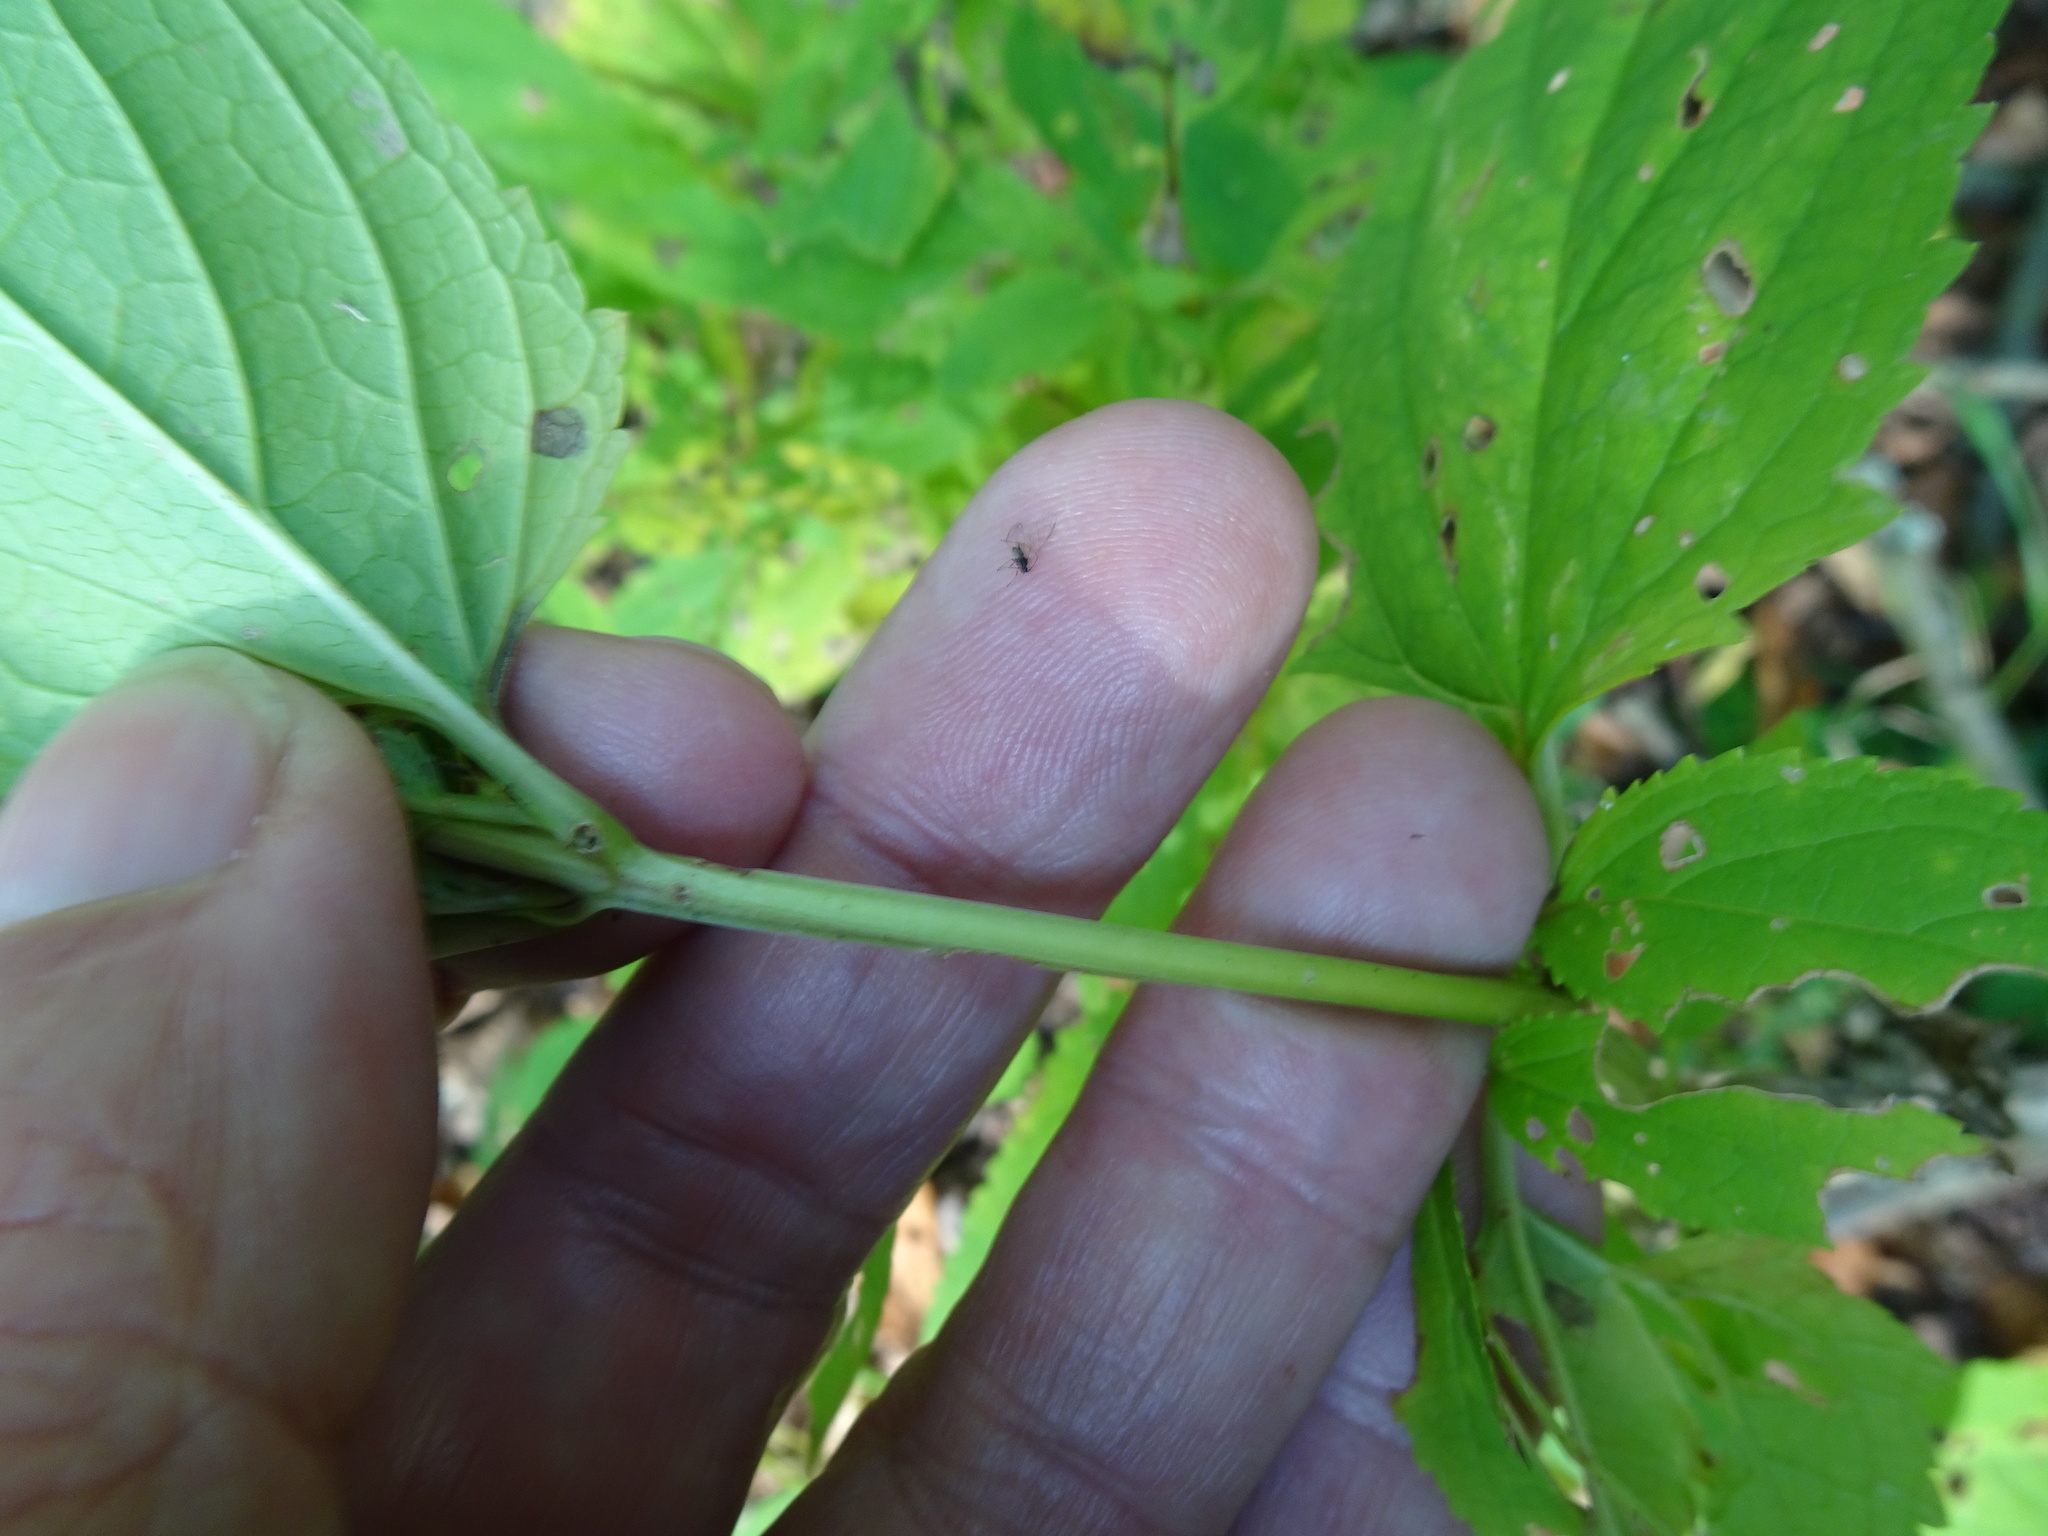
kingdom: Plantae
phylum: Tracheophyta
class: Magnoliopsida
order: Lamiales
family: Scrophulariaceae
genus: Scrophularia
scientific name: Scrophularia nodosa
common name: Common figwort
